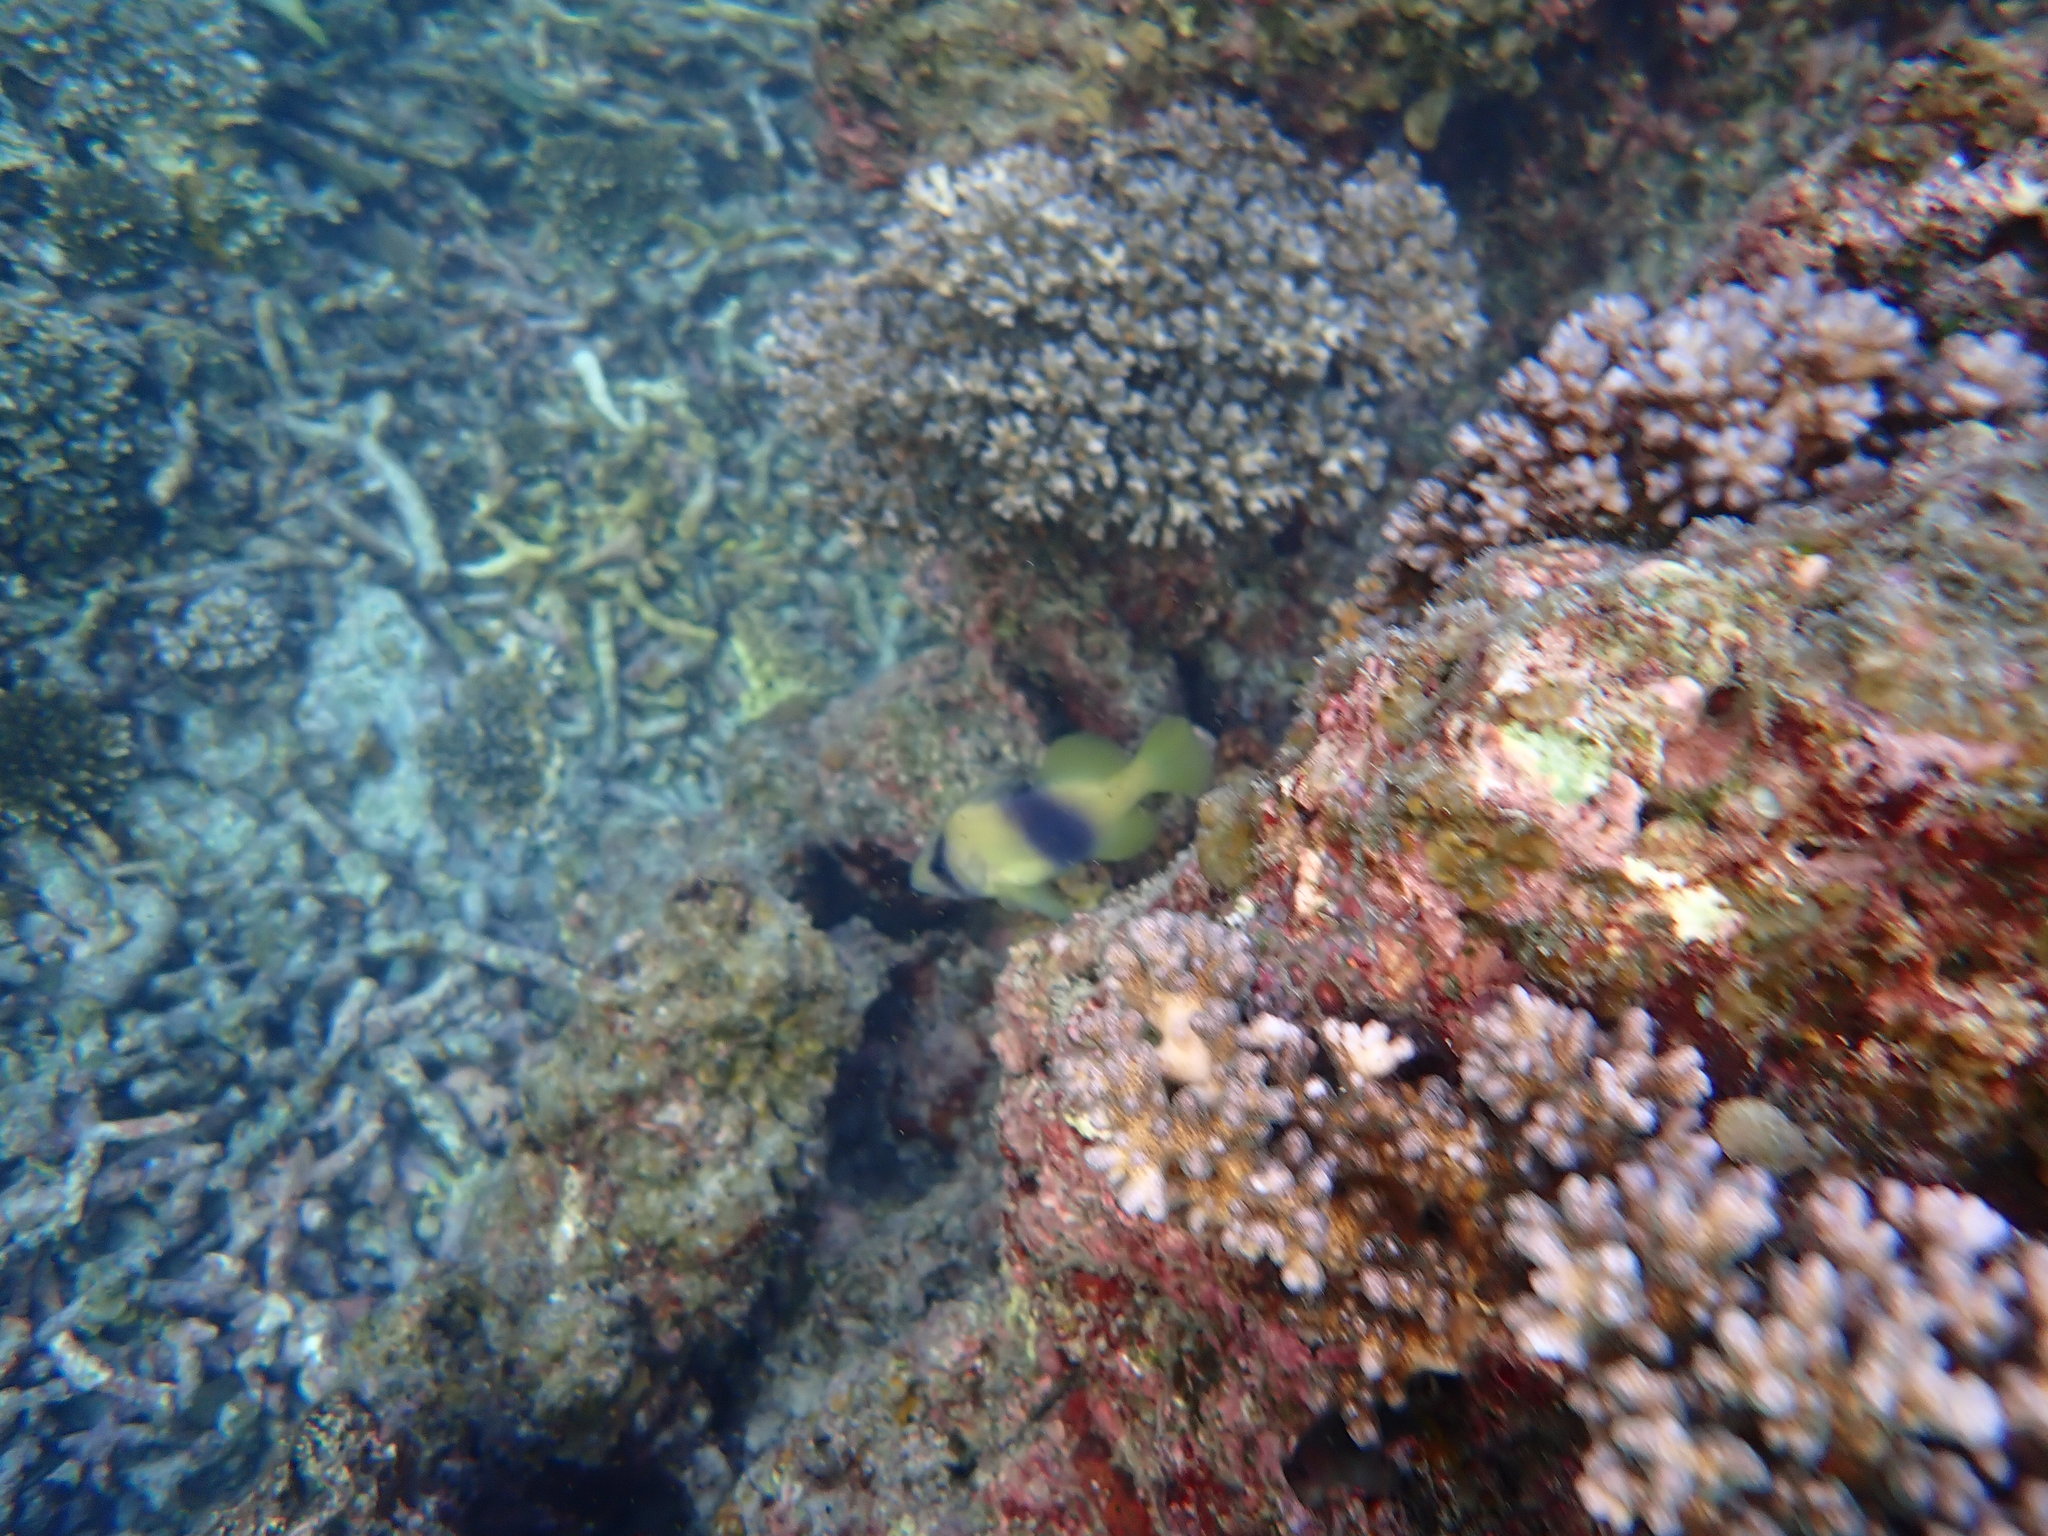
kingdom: Animalia
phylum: Chordata
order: Perciformes
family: Serranidae
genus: Diploprion
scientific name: Diploprion bifasciatum
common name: Barred soapfish
